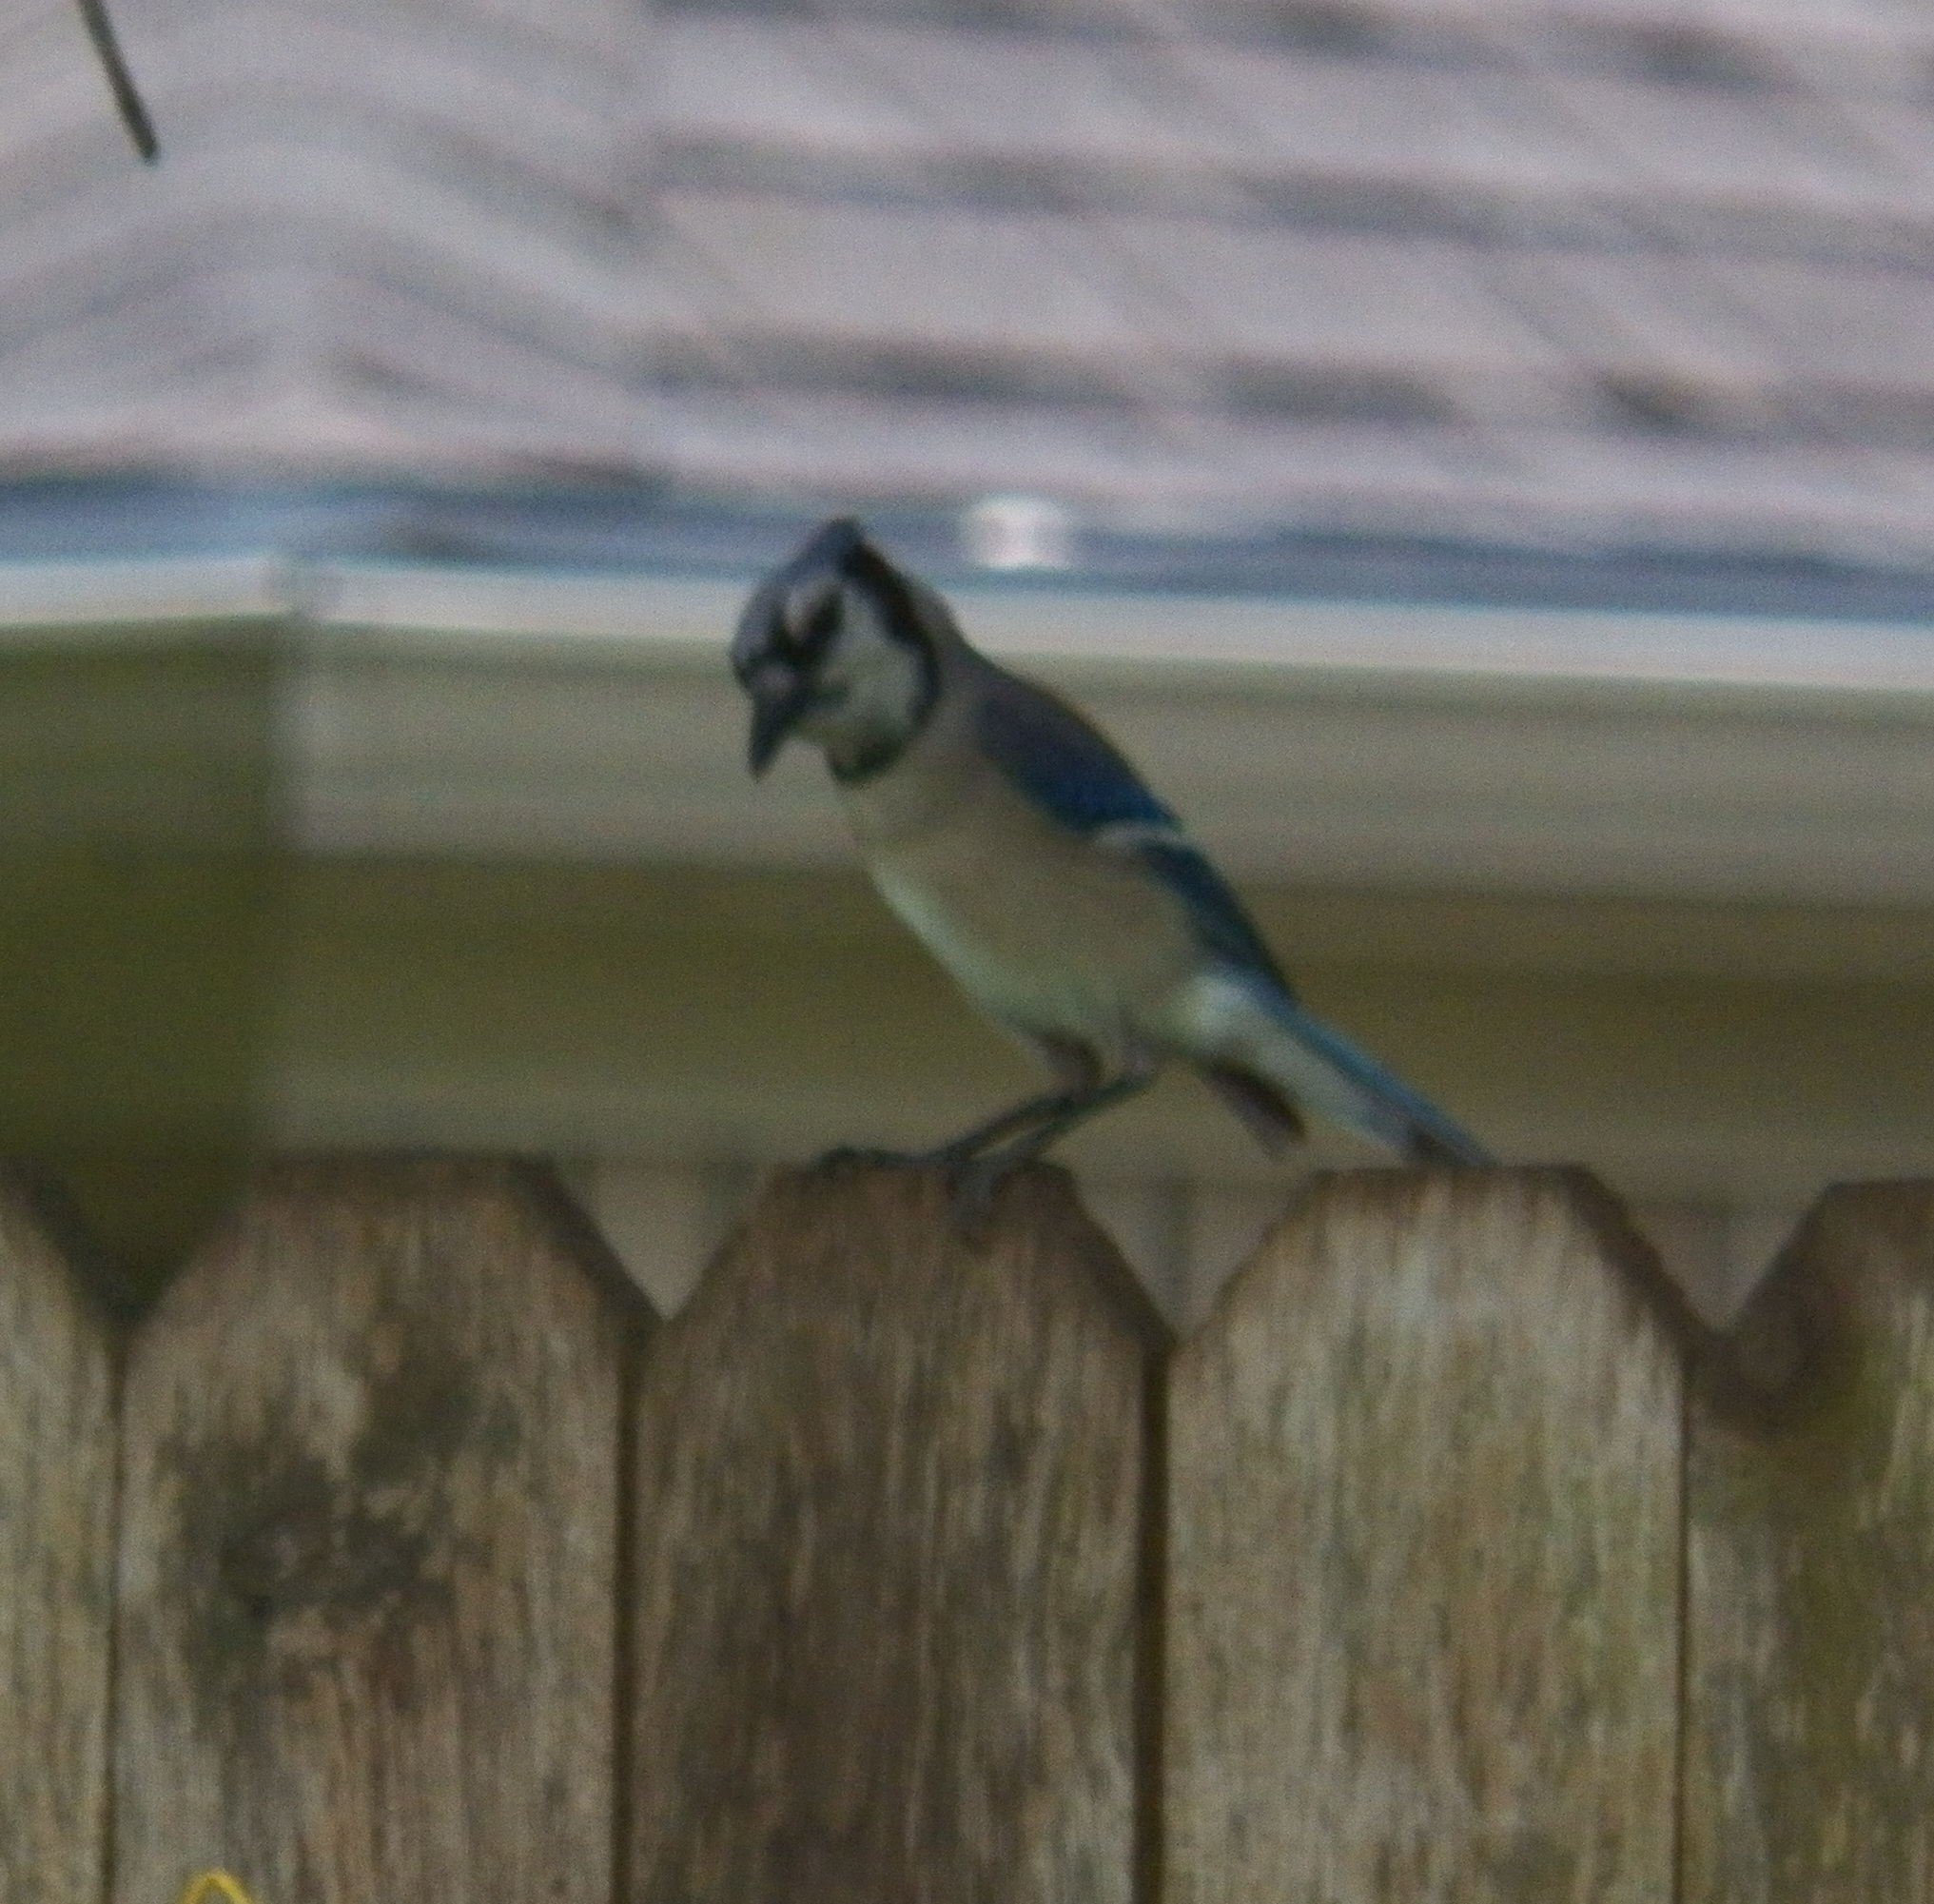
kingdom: Animalia
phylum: Chordata
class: Aves
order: Passeriformes
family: Corvidae
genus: Cyanocitta
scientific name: Cyanocitta cristata
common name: Blue jay
